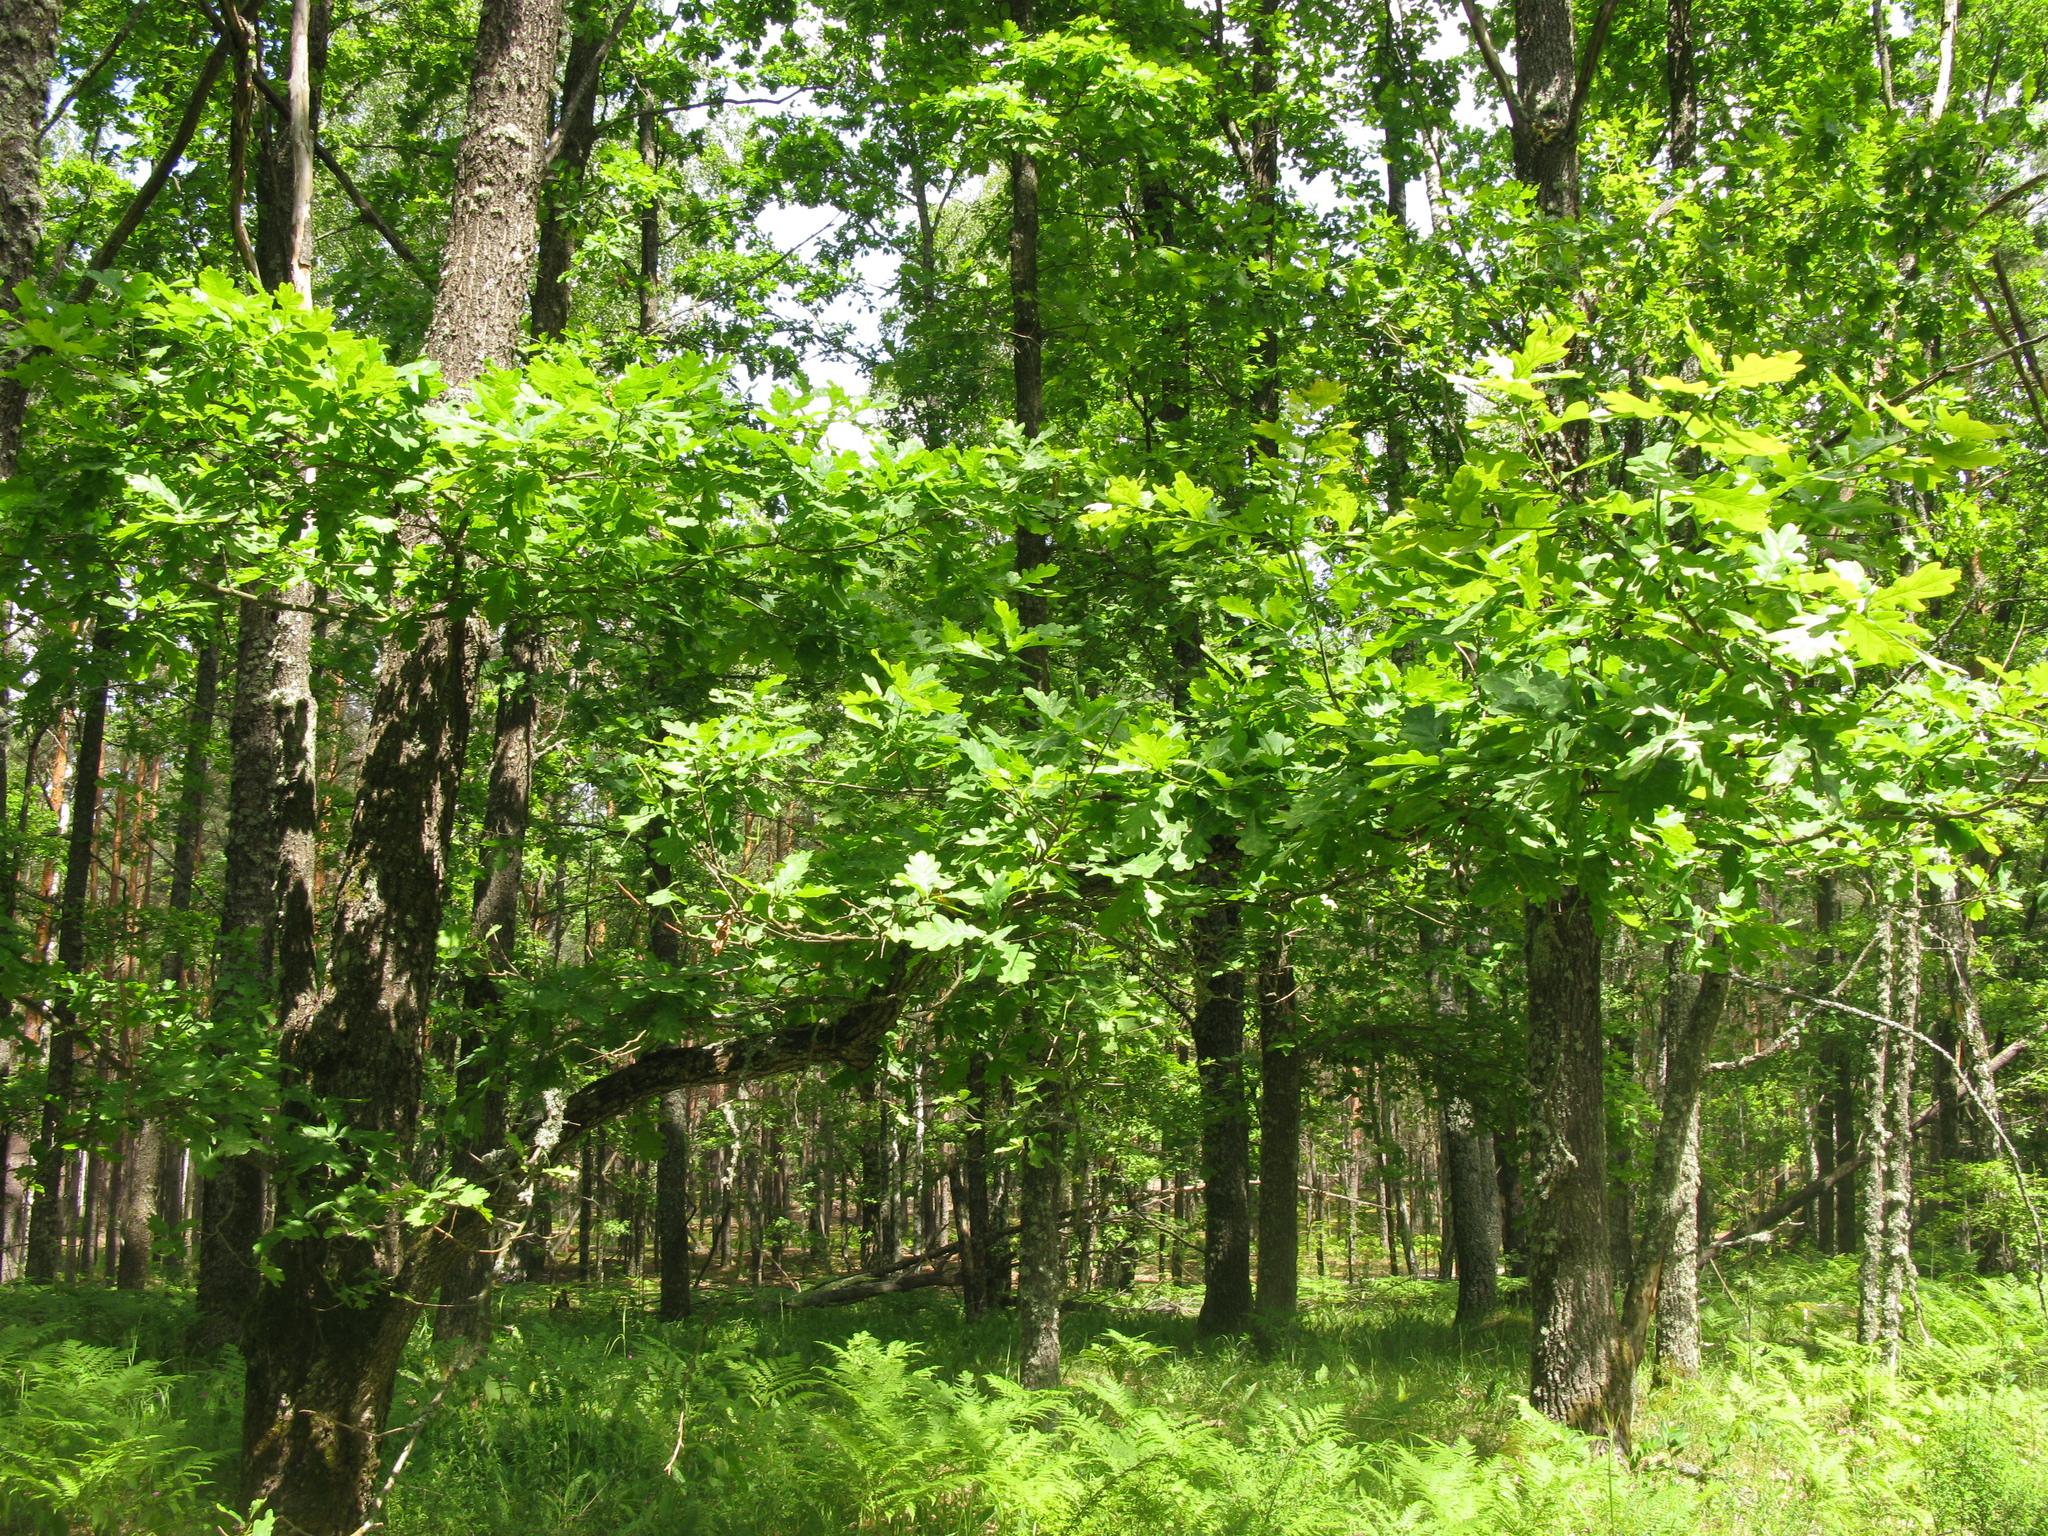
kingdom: Plantae
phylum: Tracheophyta
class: Magnoliopsida
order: Fagales
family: Fagaceae
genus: Quercus
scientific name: Quercus robur
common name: Pedunculate oak
